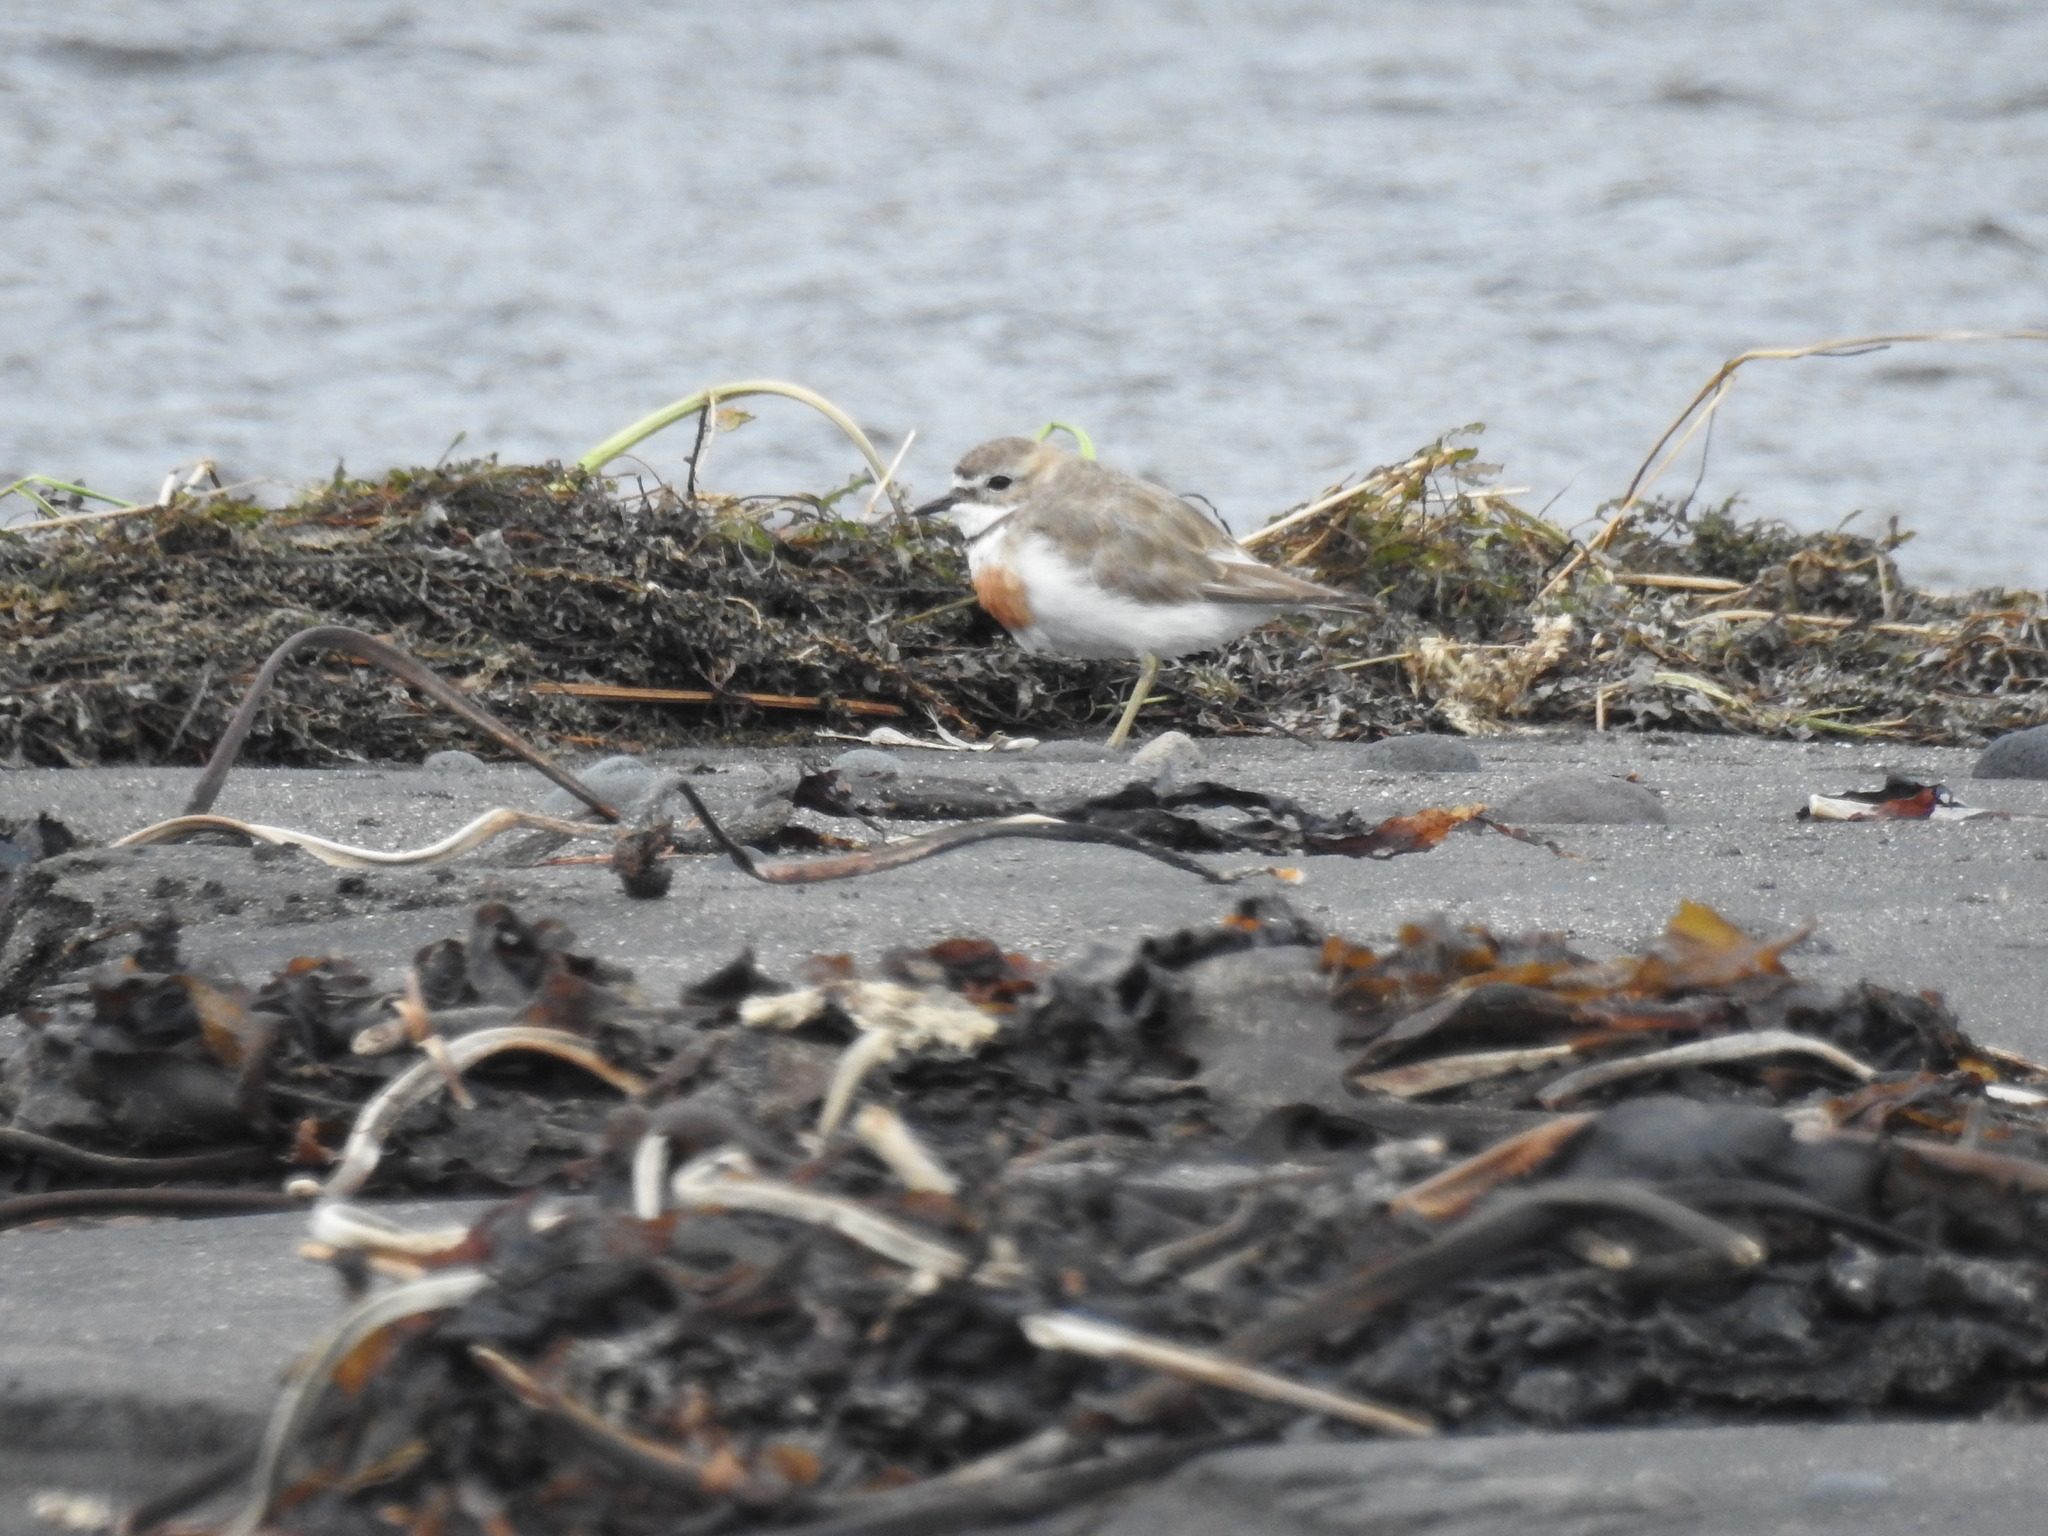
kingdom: Animalia
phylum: Chordata
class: Aves
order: Charadriiformes
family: Charadriidae
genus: Anarhynchus
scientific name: Anarhynchus
